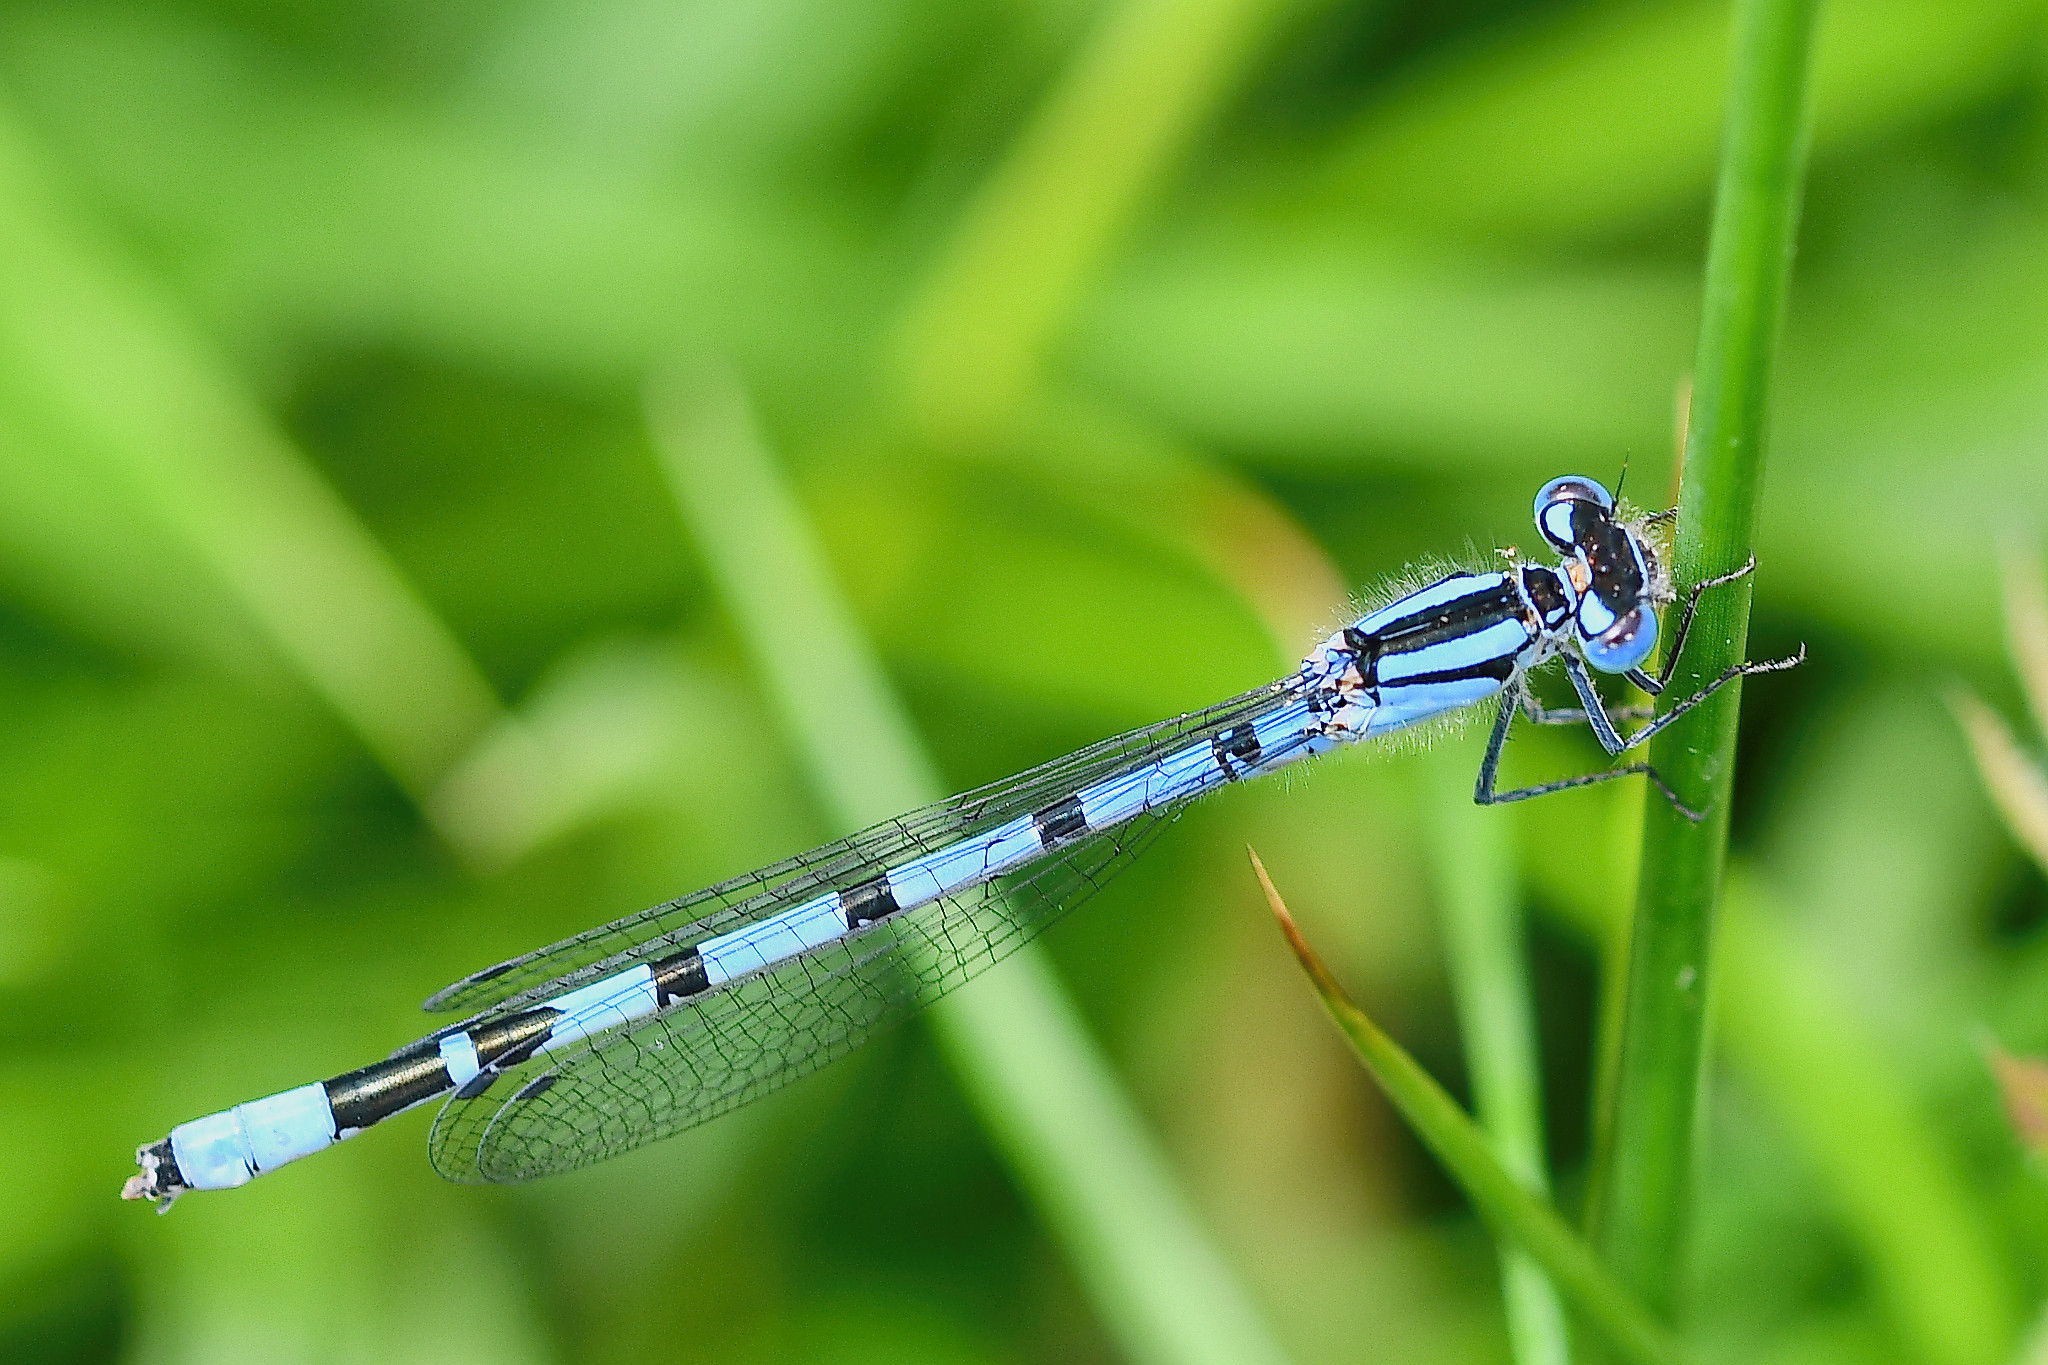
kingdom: Animalia
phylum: Arthropoda
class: Insecta
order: Odonata
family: Coenagrionidae
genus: Enallagma
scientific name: Enallagma cyathigerum
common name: Common blue damselfly
